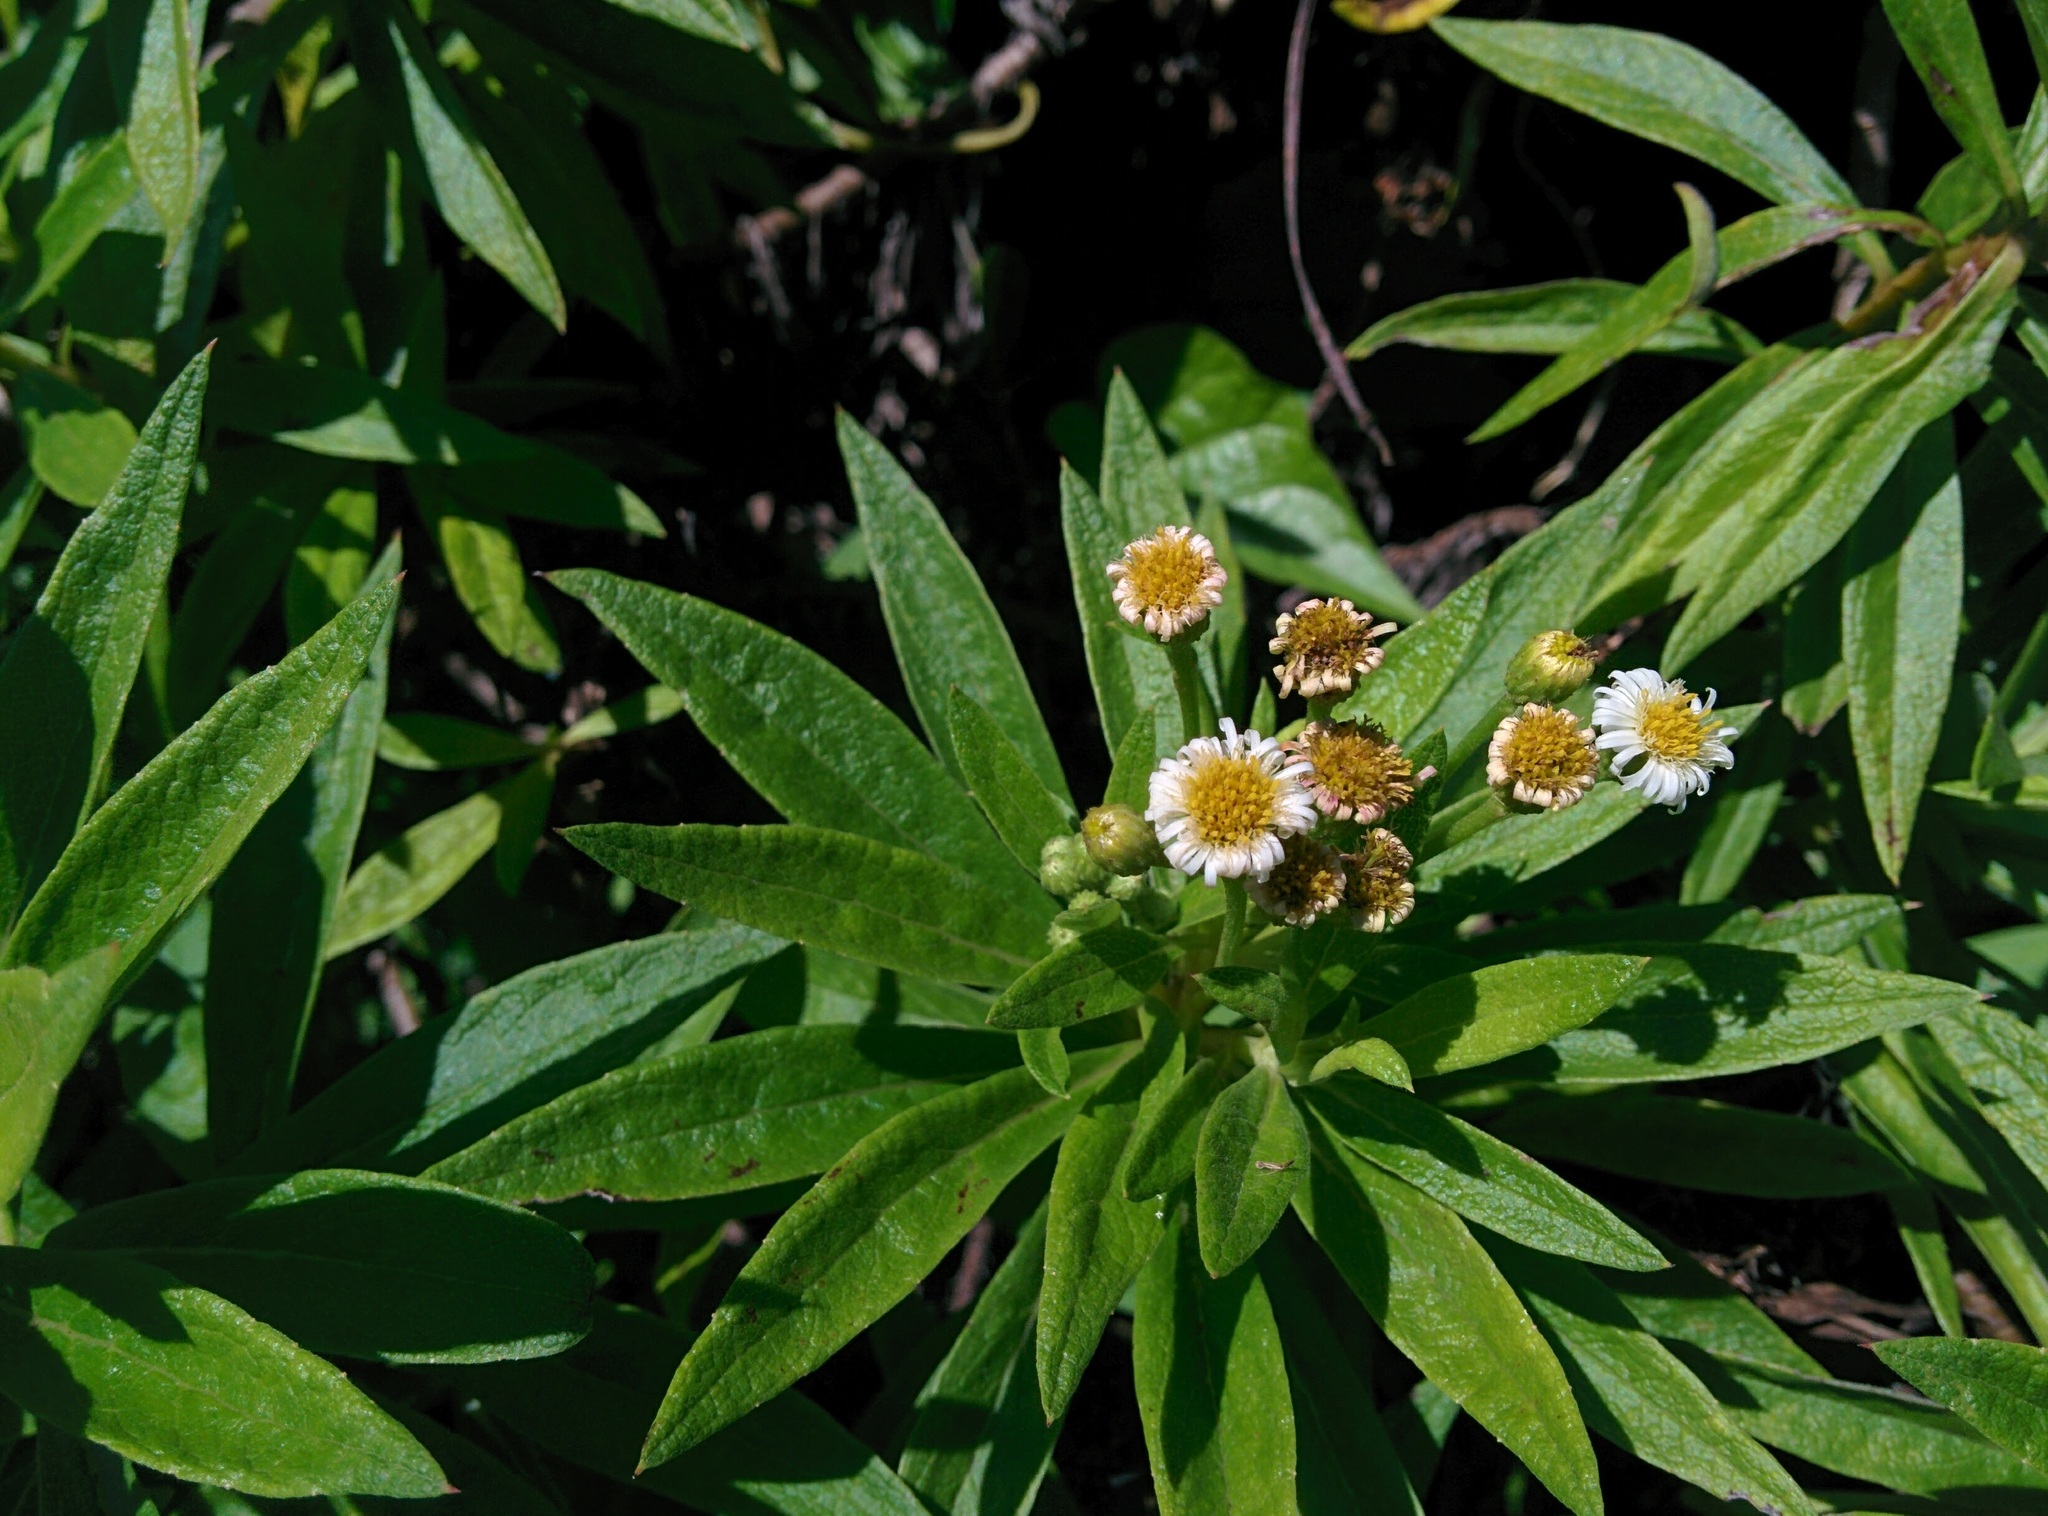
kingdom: Plantae
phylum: Tracheophyta
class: Magnoliopsida
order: Asterales
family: Asteraceae
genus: Erigeron
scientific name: Erigeron lancifolius
